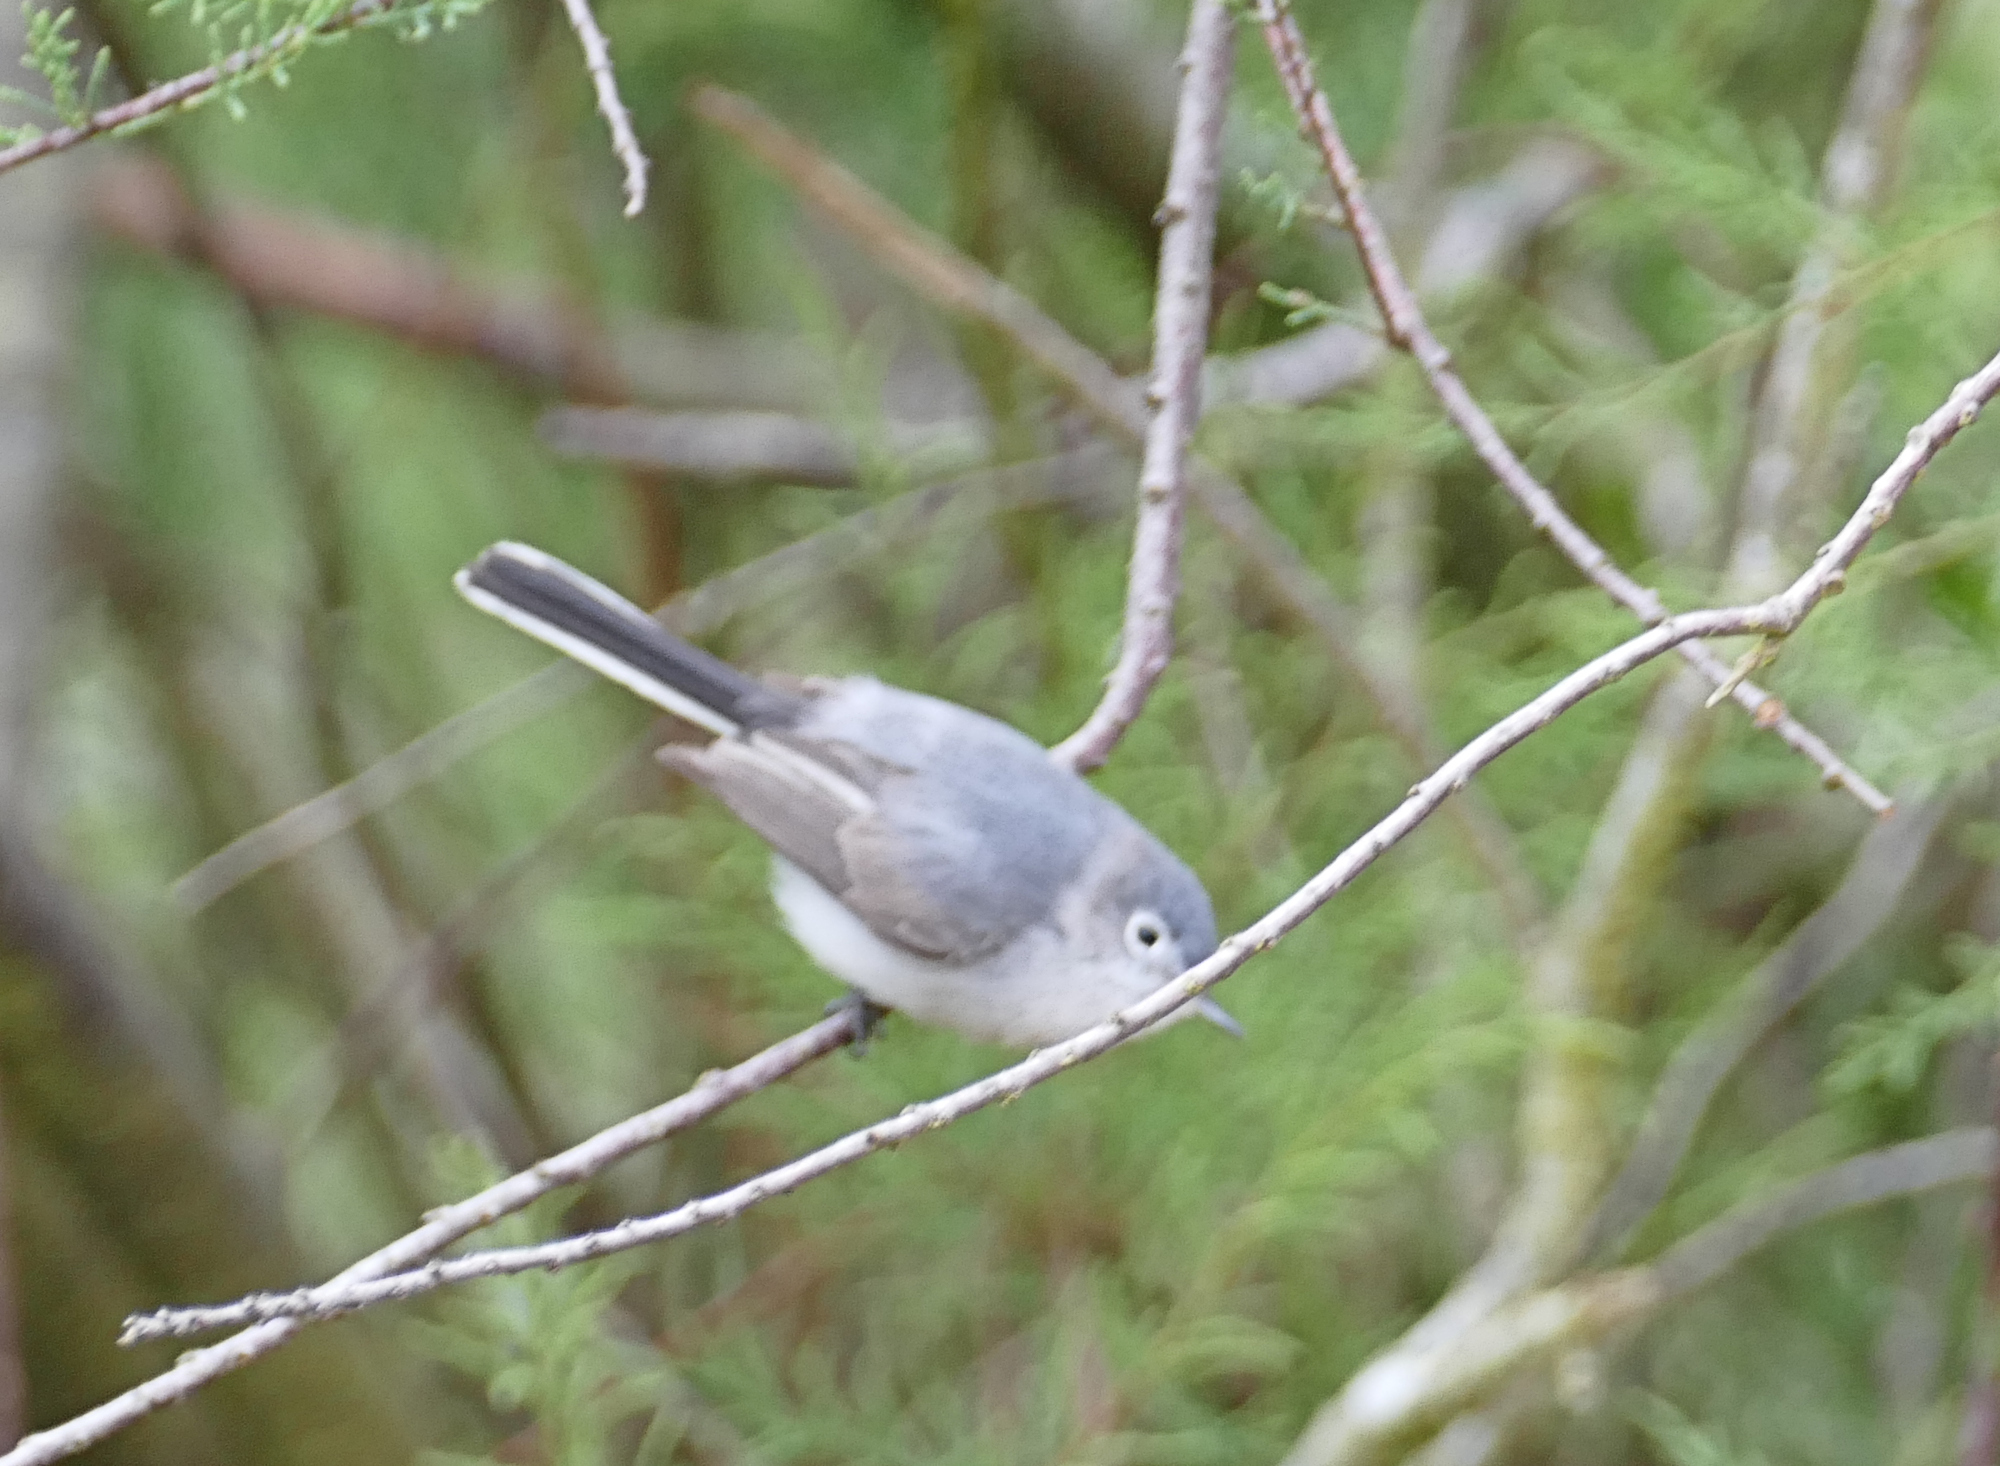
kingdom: Animalia
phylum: Chordata
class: Aves
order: Passeriformes
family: Polioptilidae
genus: Polioptila
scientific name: Polioptila caerulea
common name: Blue-gray gnatcatcher
